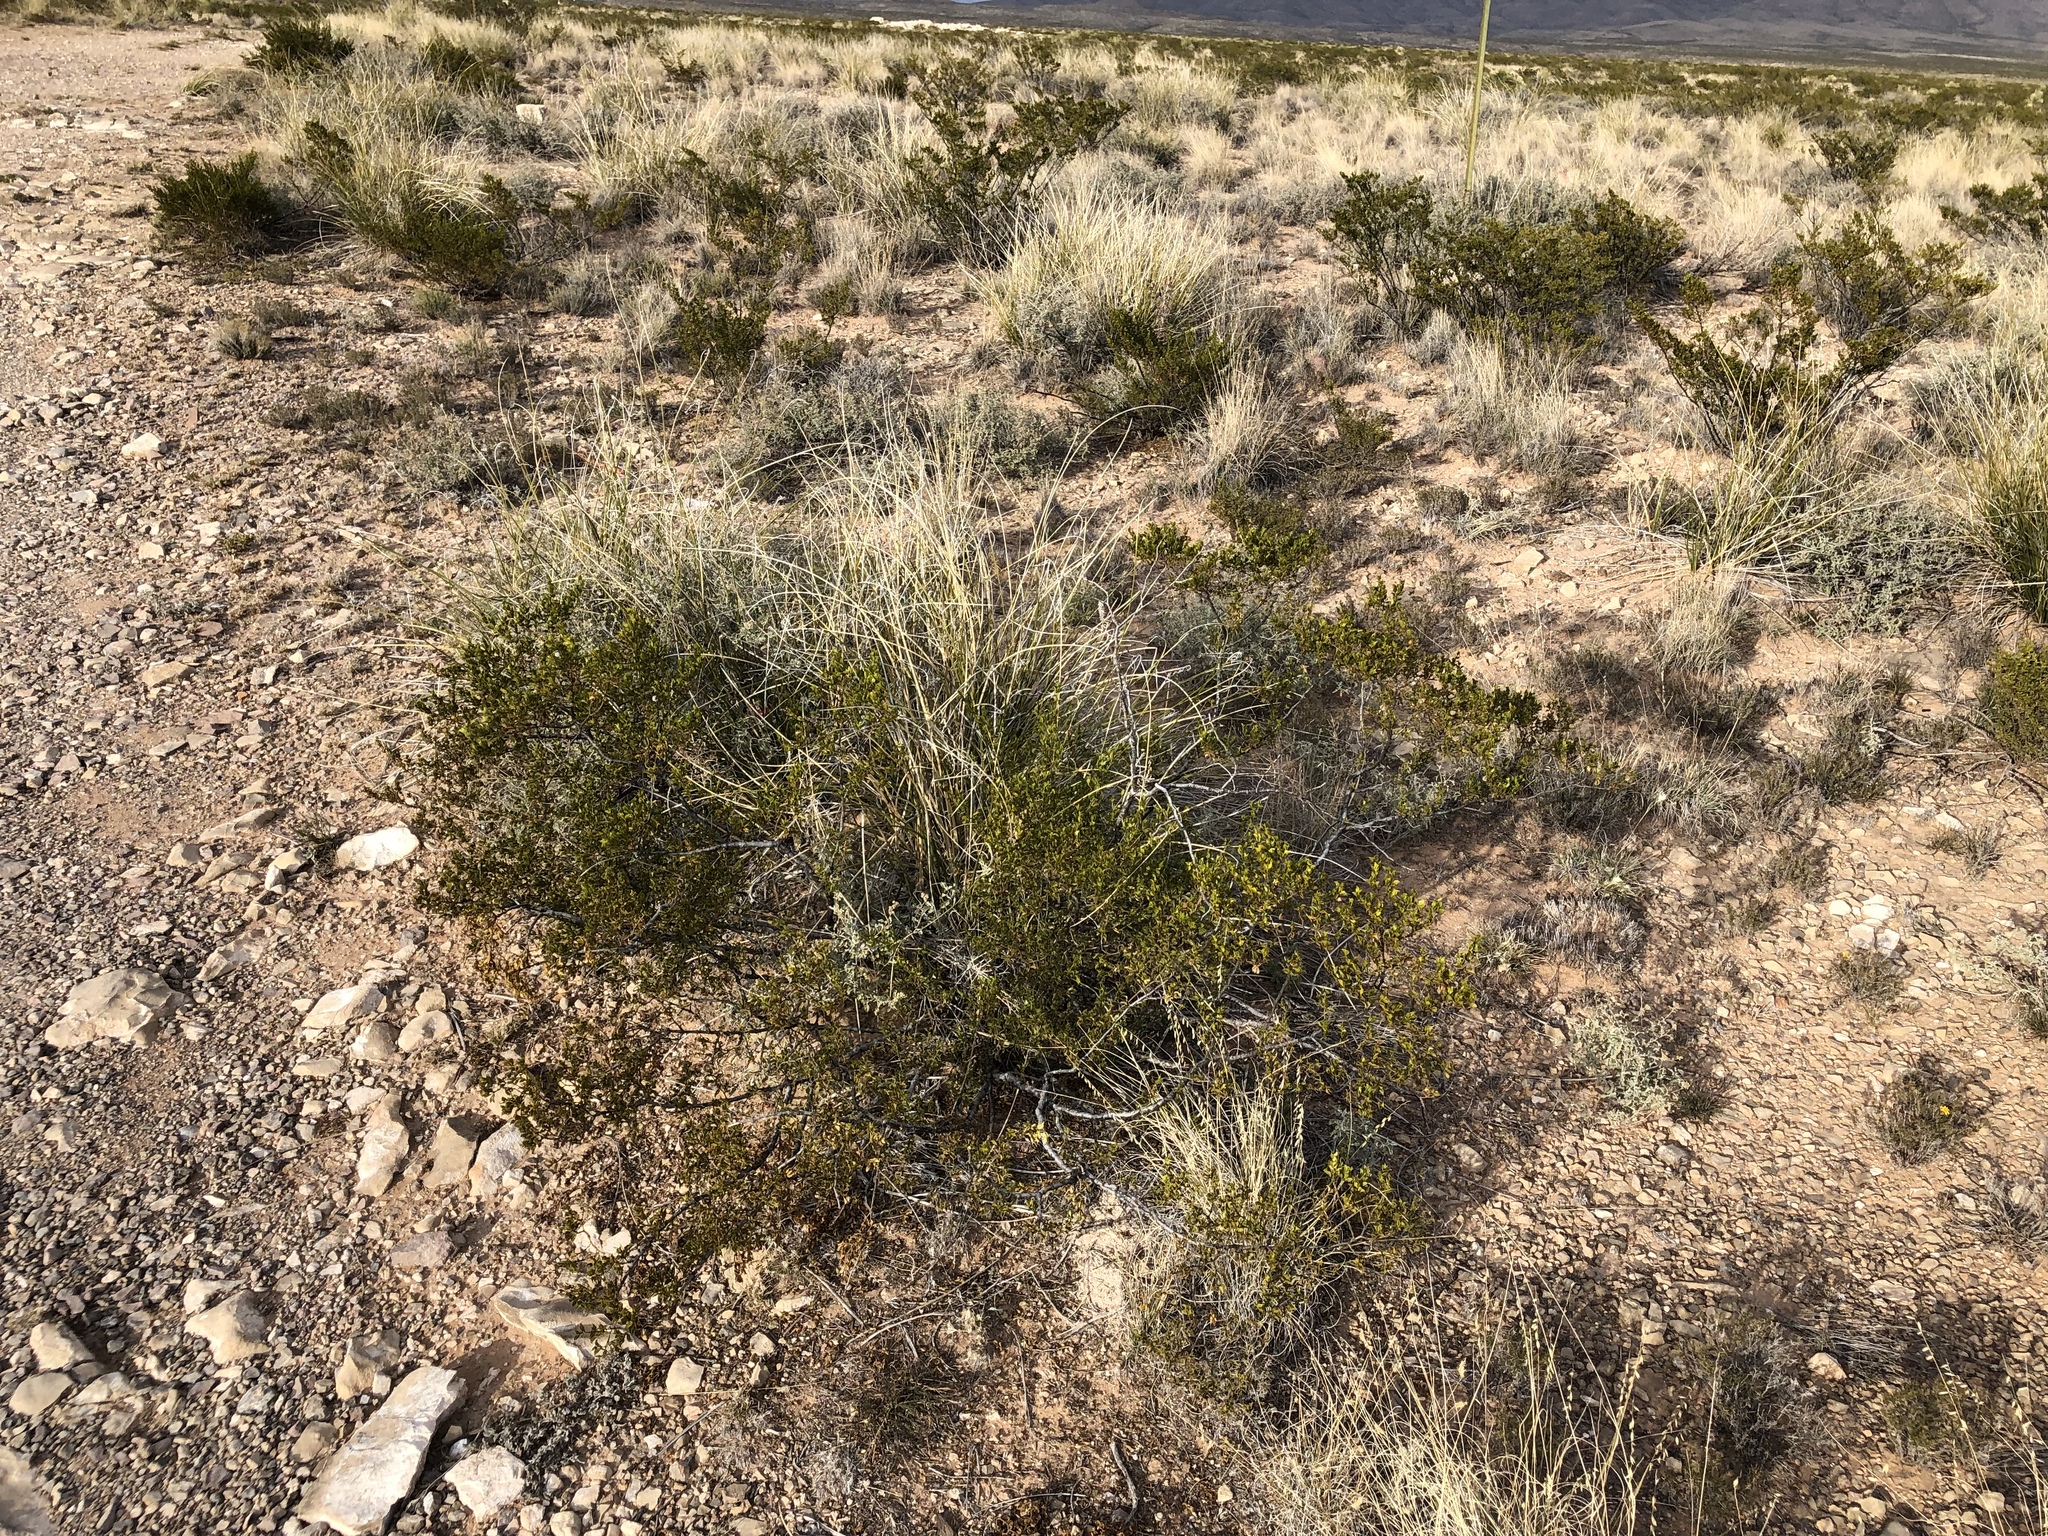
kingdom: Plantae
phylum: Tracheophyta
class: Magnoliopsida
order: Zygophyllales
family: Zygophyllaceae
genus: Larrea
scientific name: Larrea tridentata
